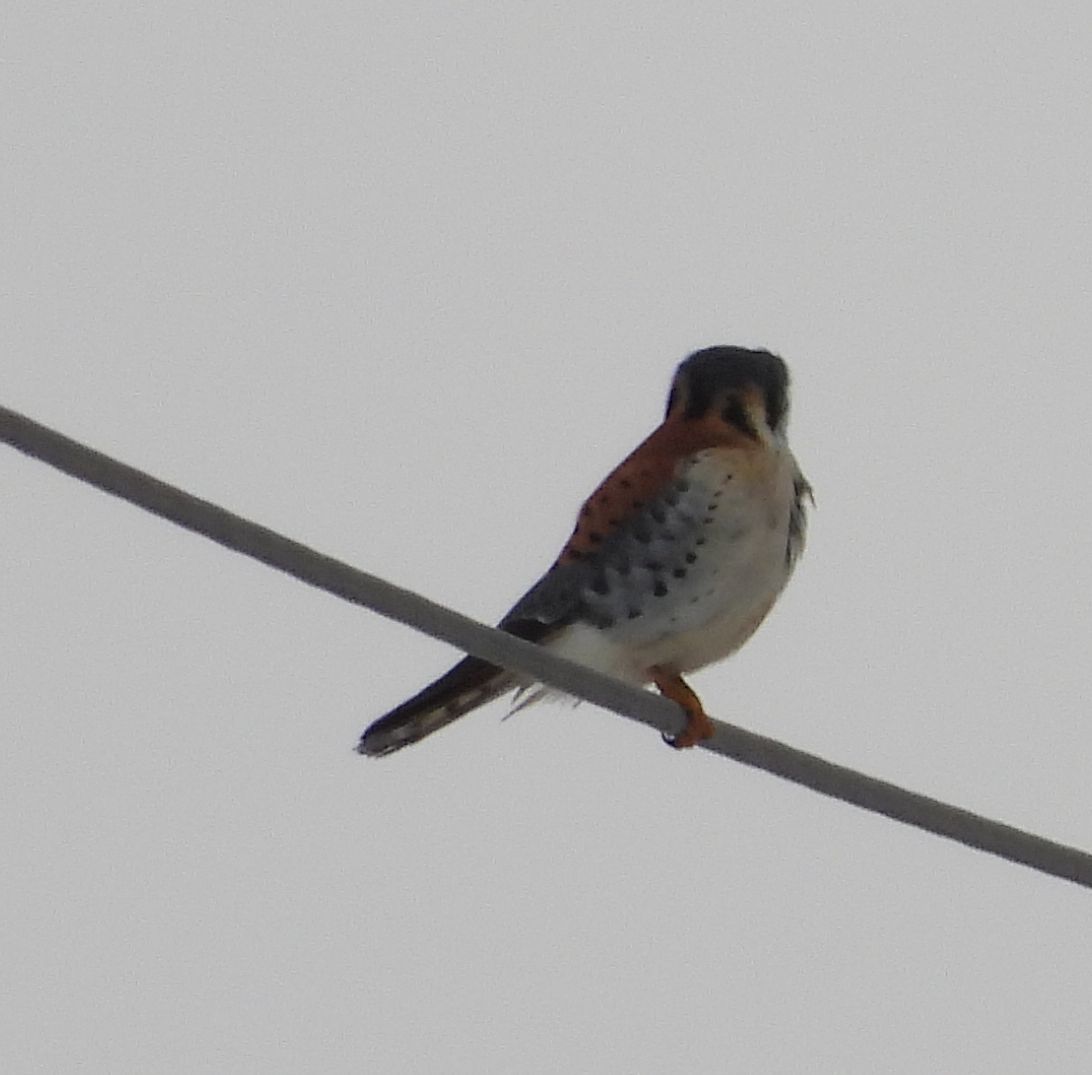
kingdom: Animalia
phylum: Chordata
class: Aves
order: Falconiformes
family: Falconidae
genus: Falco
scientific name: Falco sparverius
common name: American kestrel
